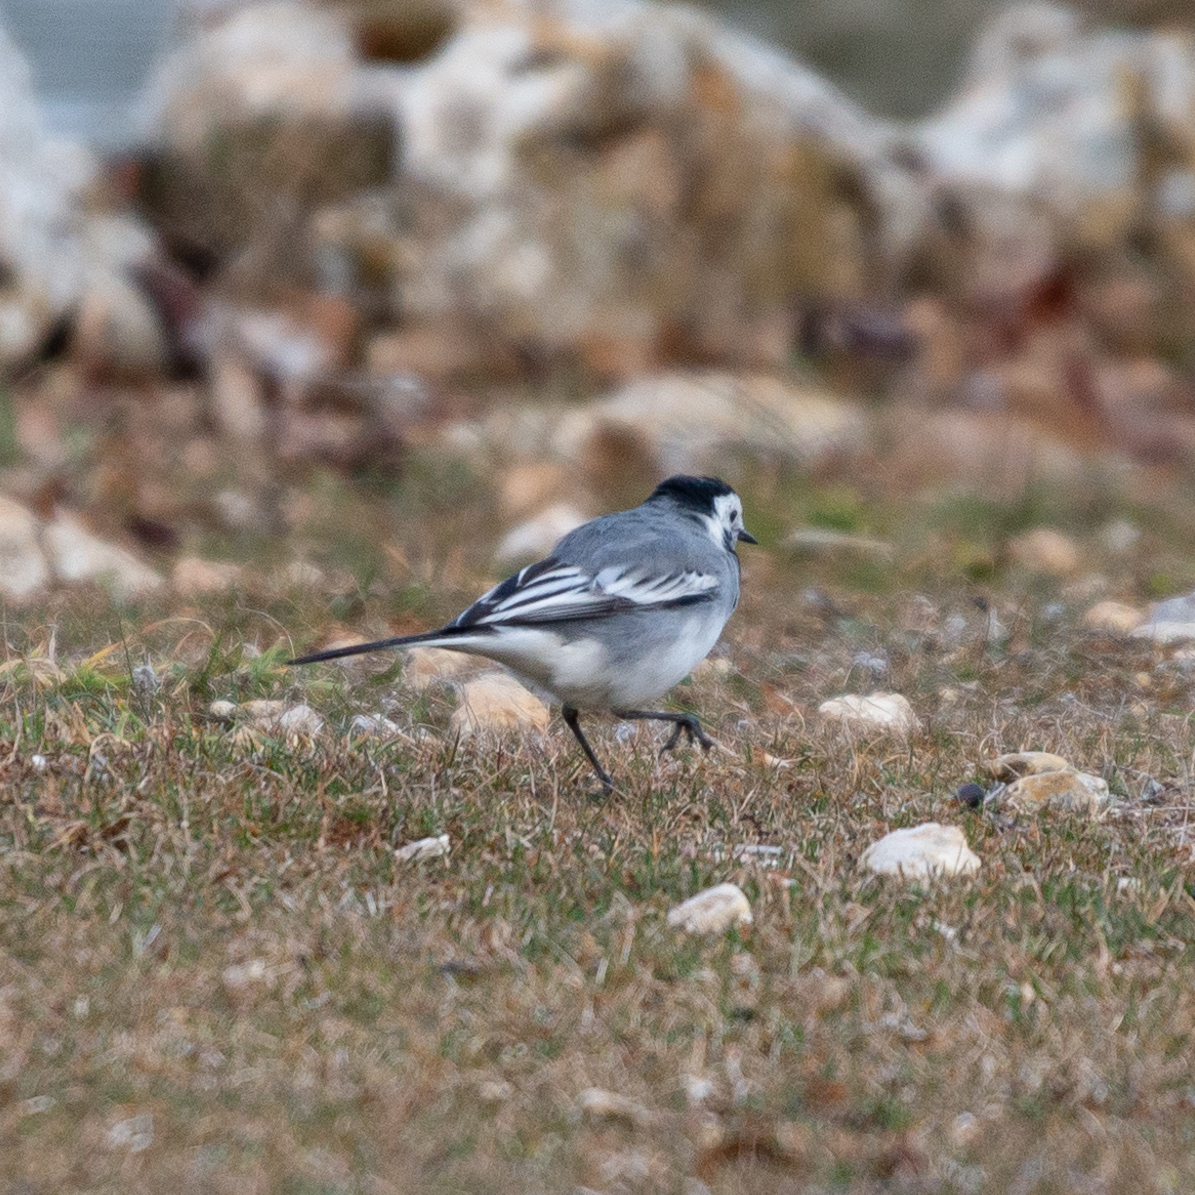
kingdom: Animalia
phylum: Chordata
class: Aves
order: Passeriformes
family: Motacillidae
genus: Motacilla
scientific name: Motacilla alba
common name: White wagtail
